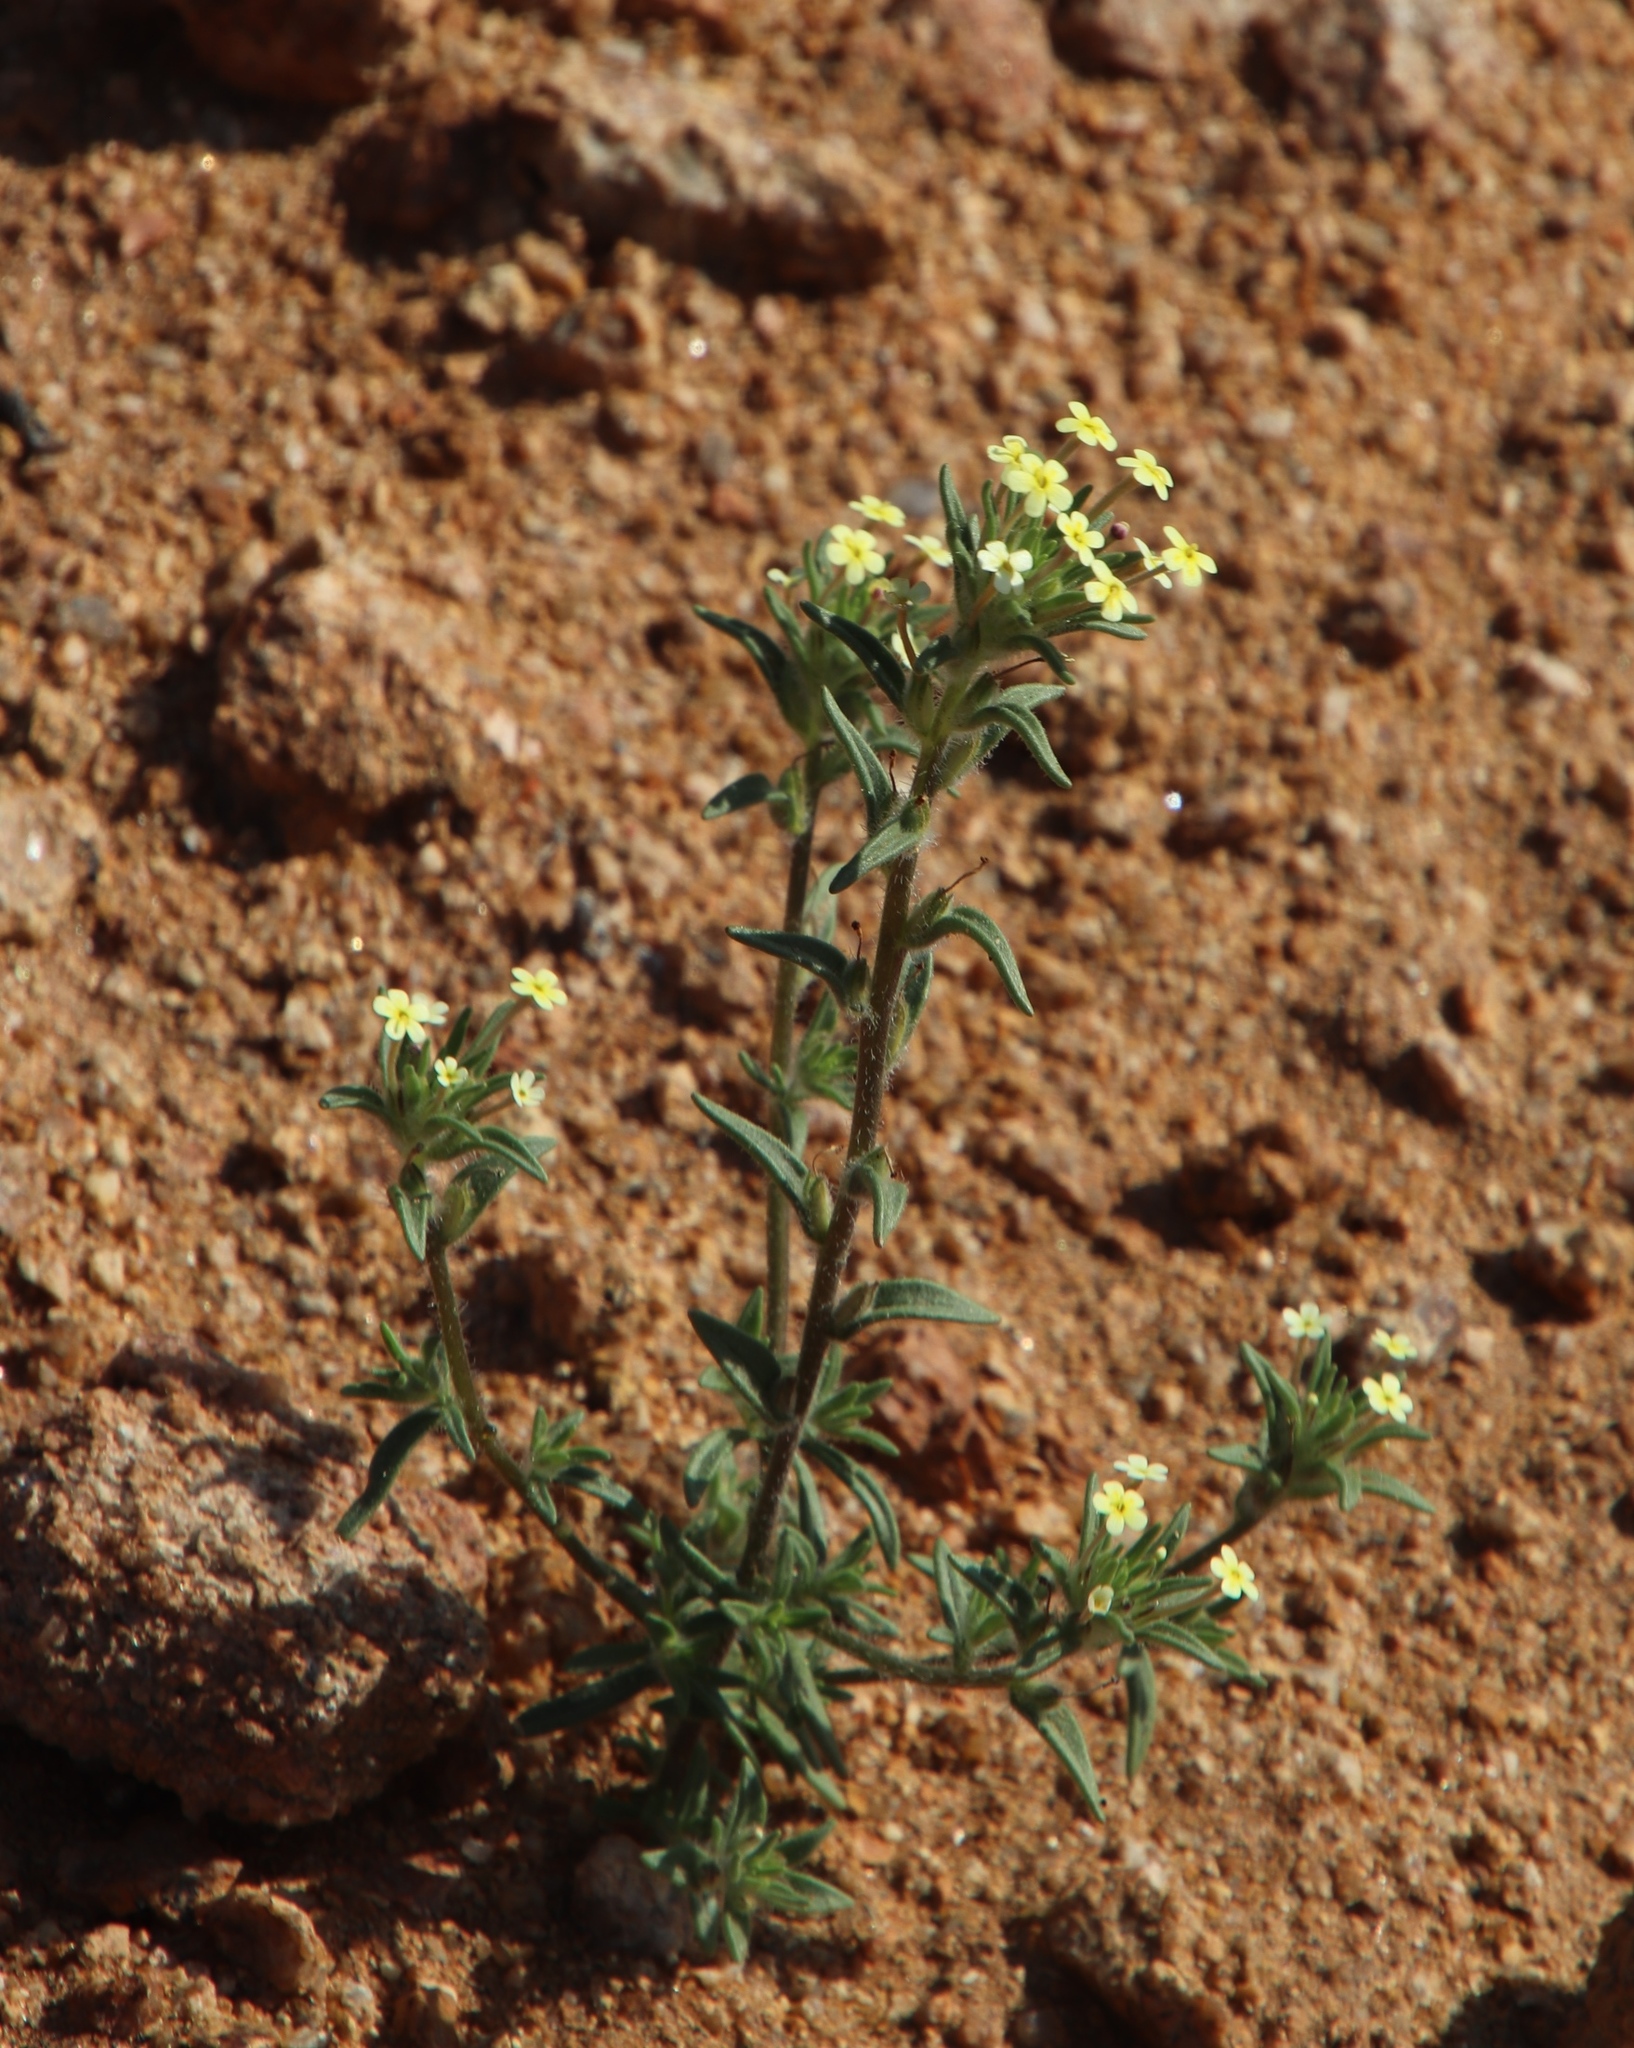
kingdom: Plantae
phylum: Tracheophyta
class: Magnoliopsida
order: Lamiales
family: Scrophulariaceae
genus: Zaluzianskya
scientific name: Zaluzianskya benthamiana
